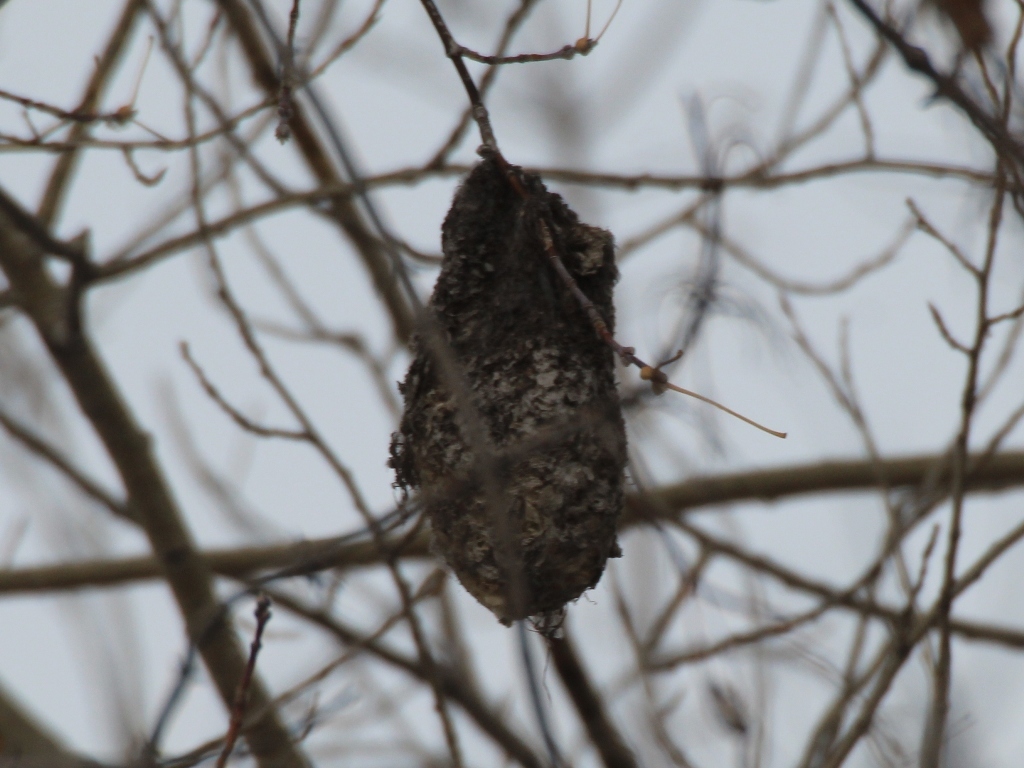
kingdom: Animalia
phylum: Chordata
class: Aves
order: Passeriformes
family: Remizidae
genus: Remiz
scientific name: Remiz pendulinus
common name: Eurasian penduline tit
